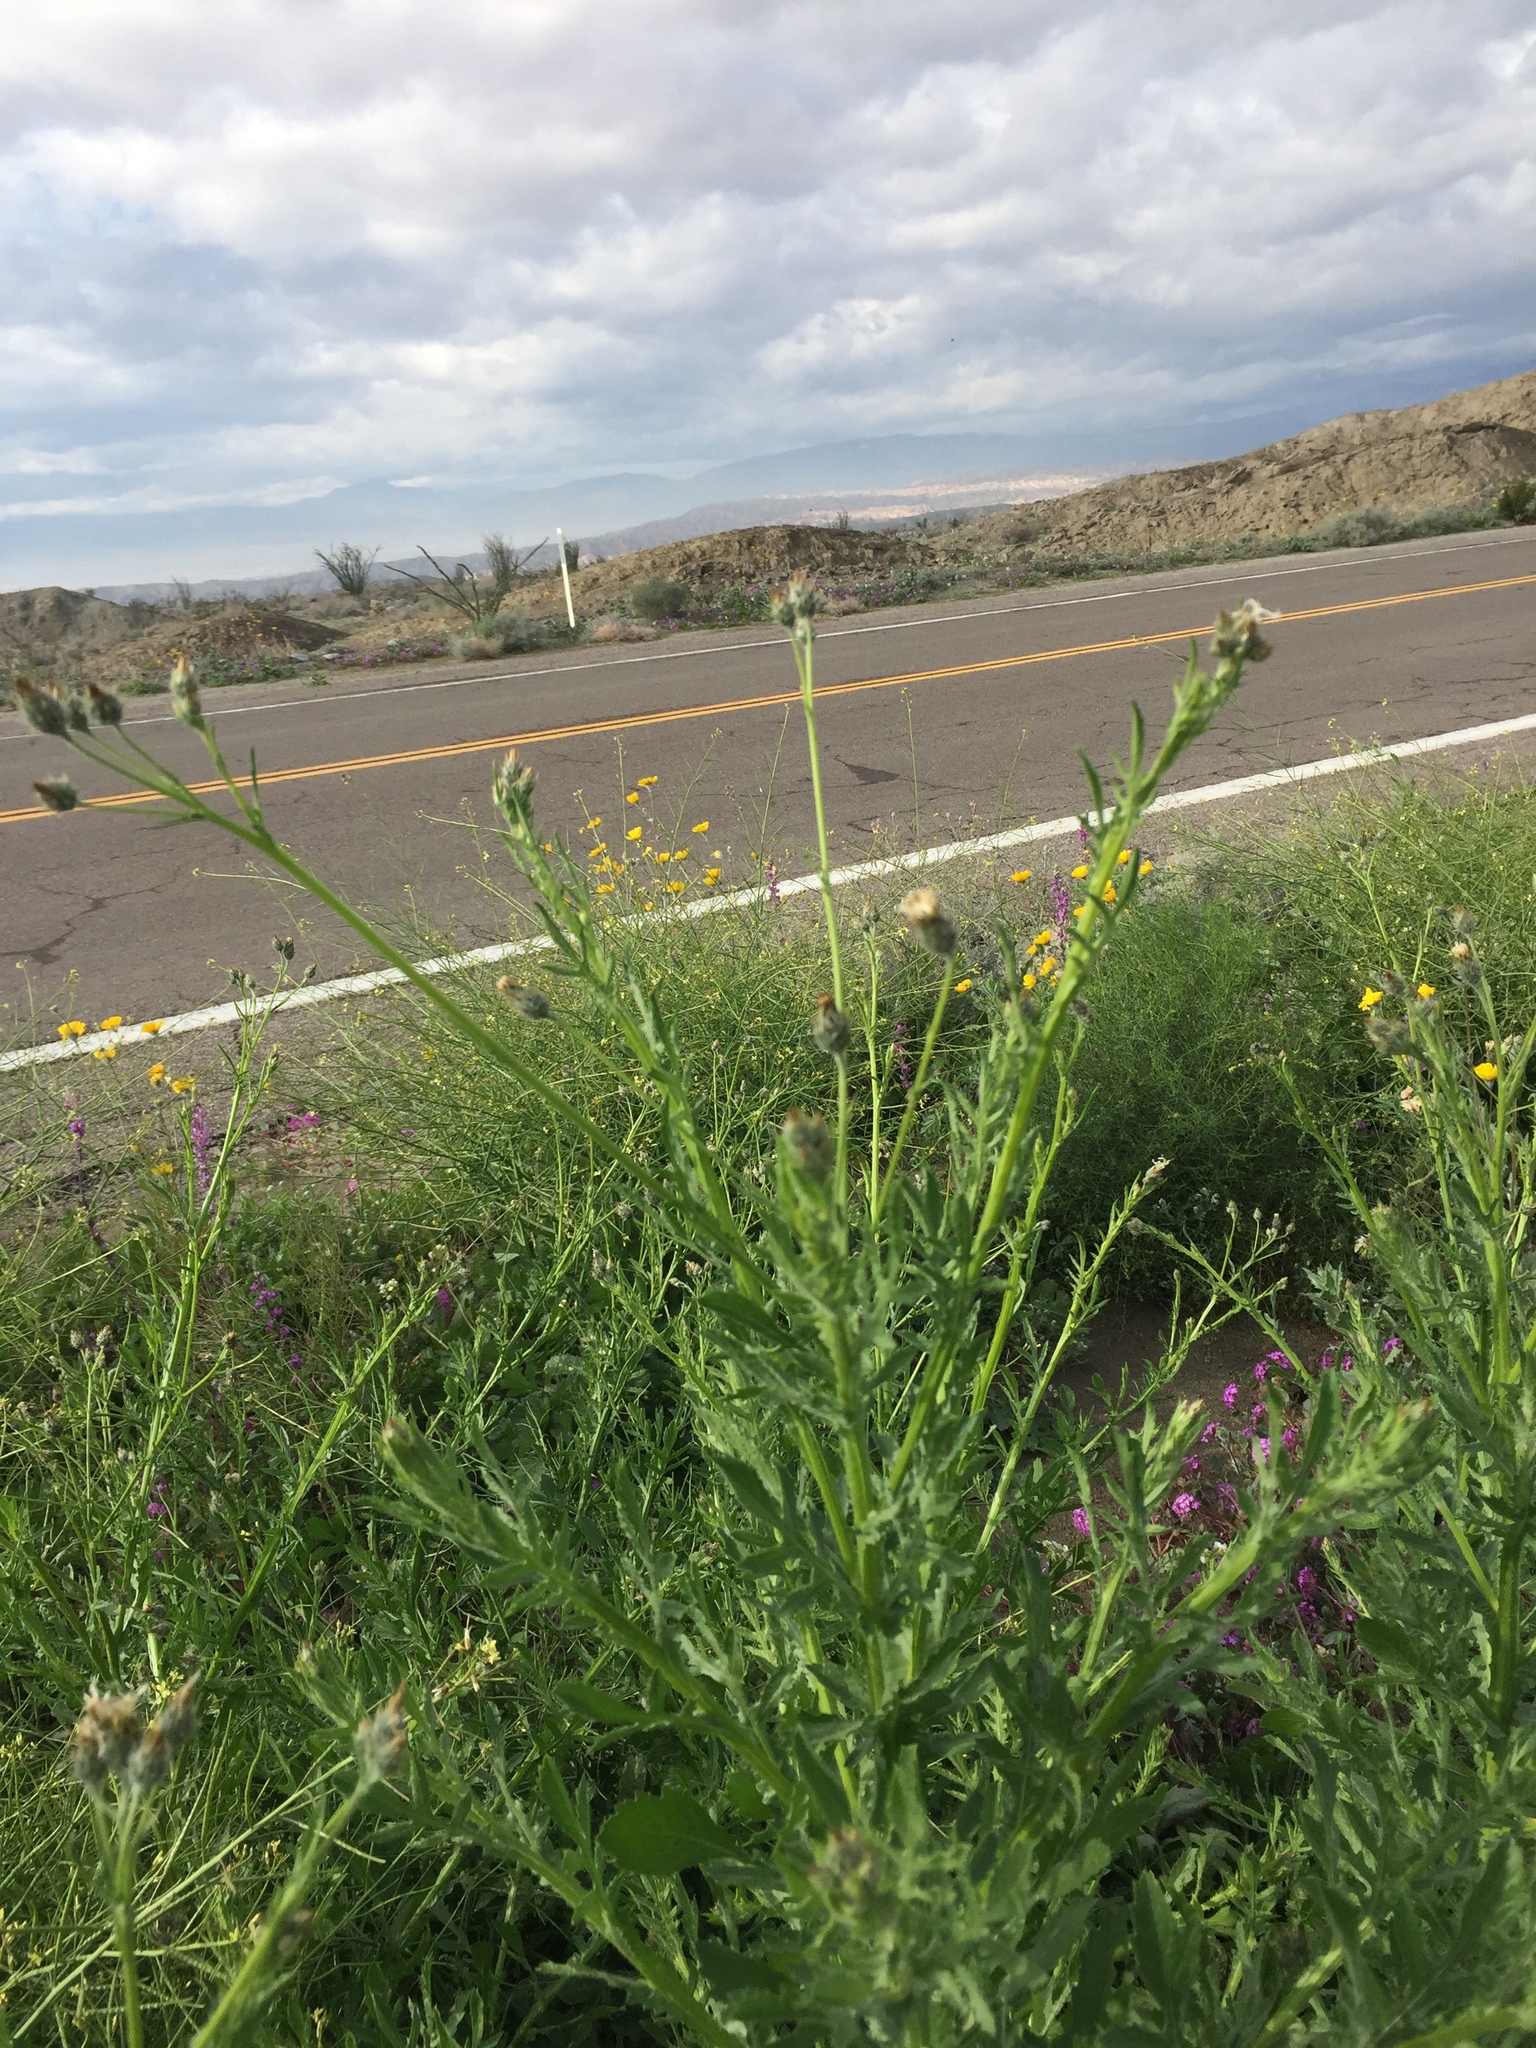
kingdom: Plantae
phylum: Tracheophyta
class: Magnoliopsida
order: Asterales
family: Asteraceae
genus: Volutaria
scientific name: Volutaria tubuliflora
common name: Desert knapweed
